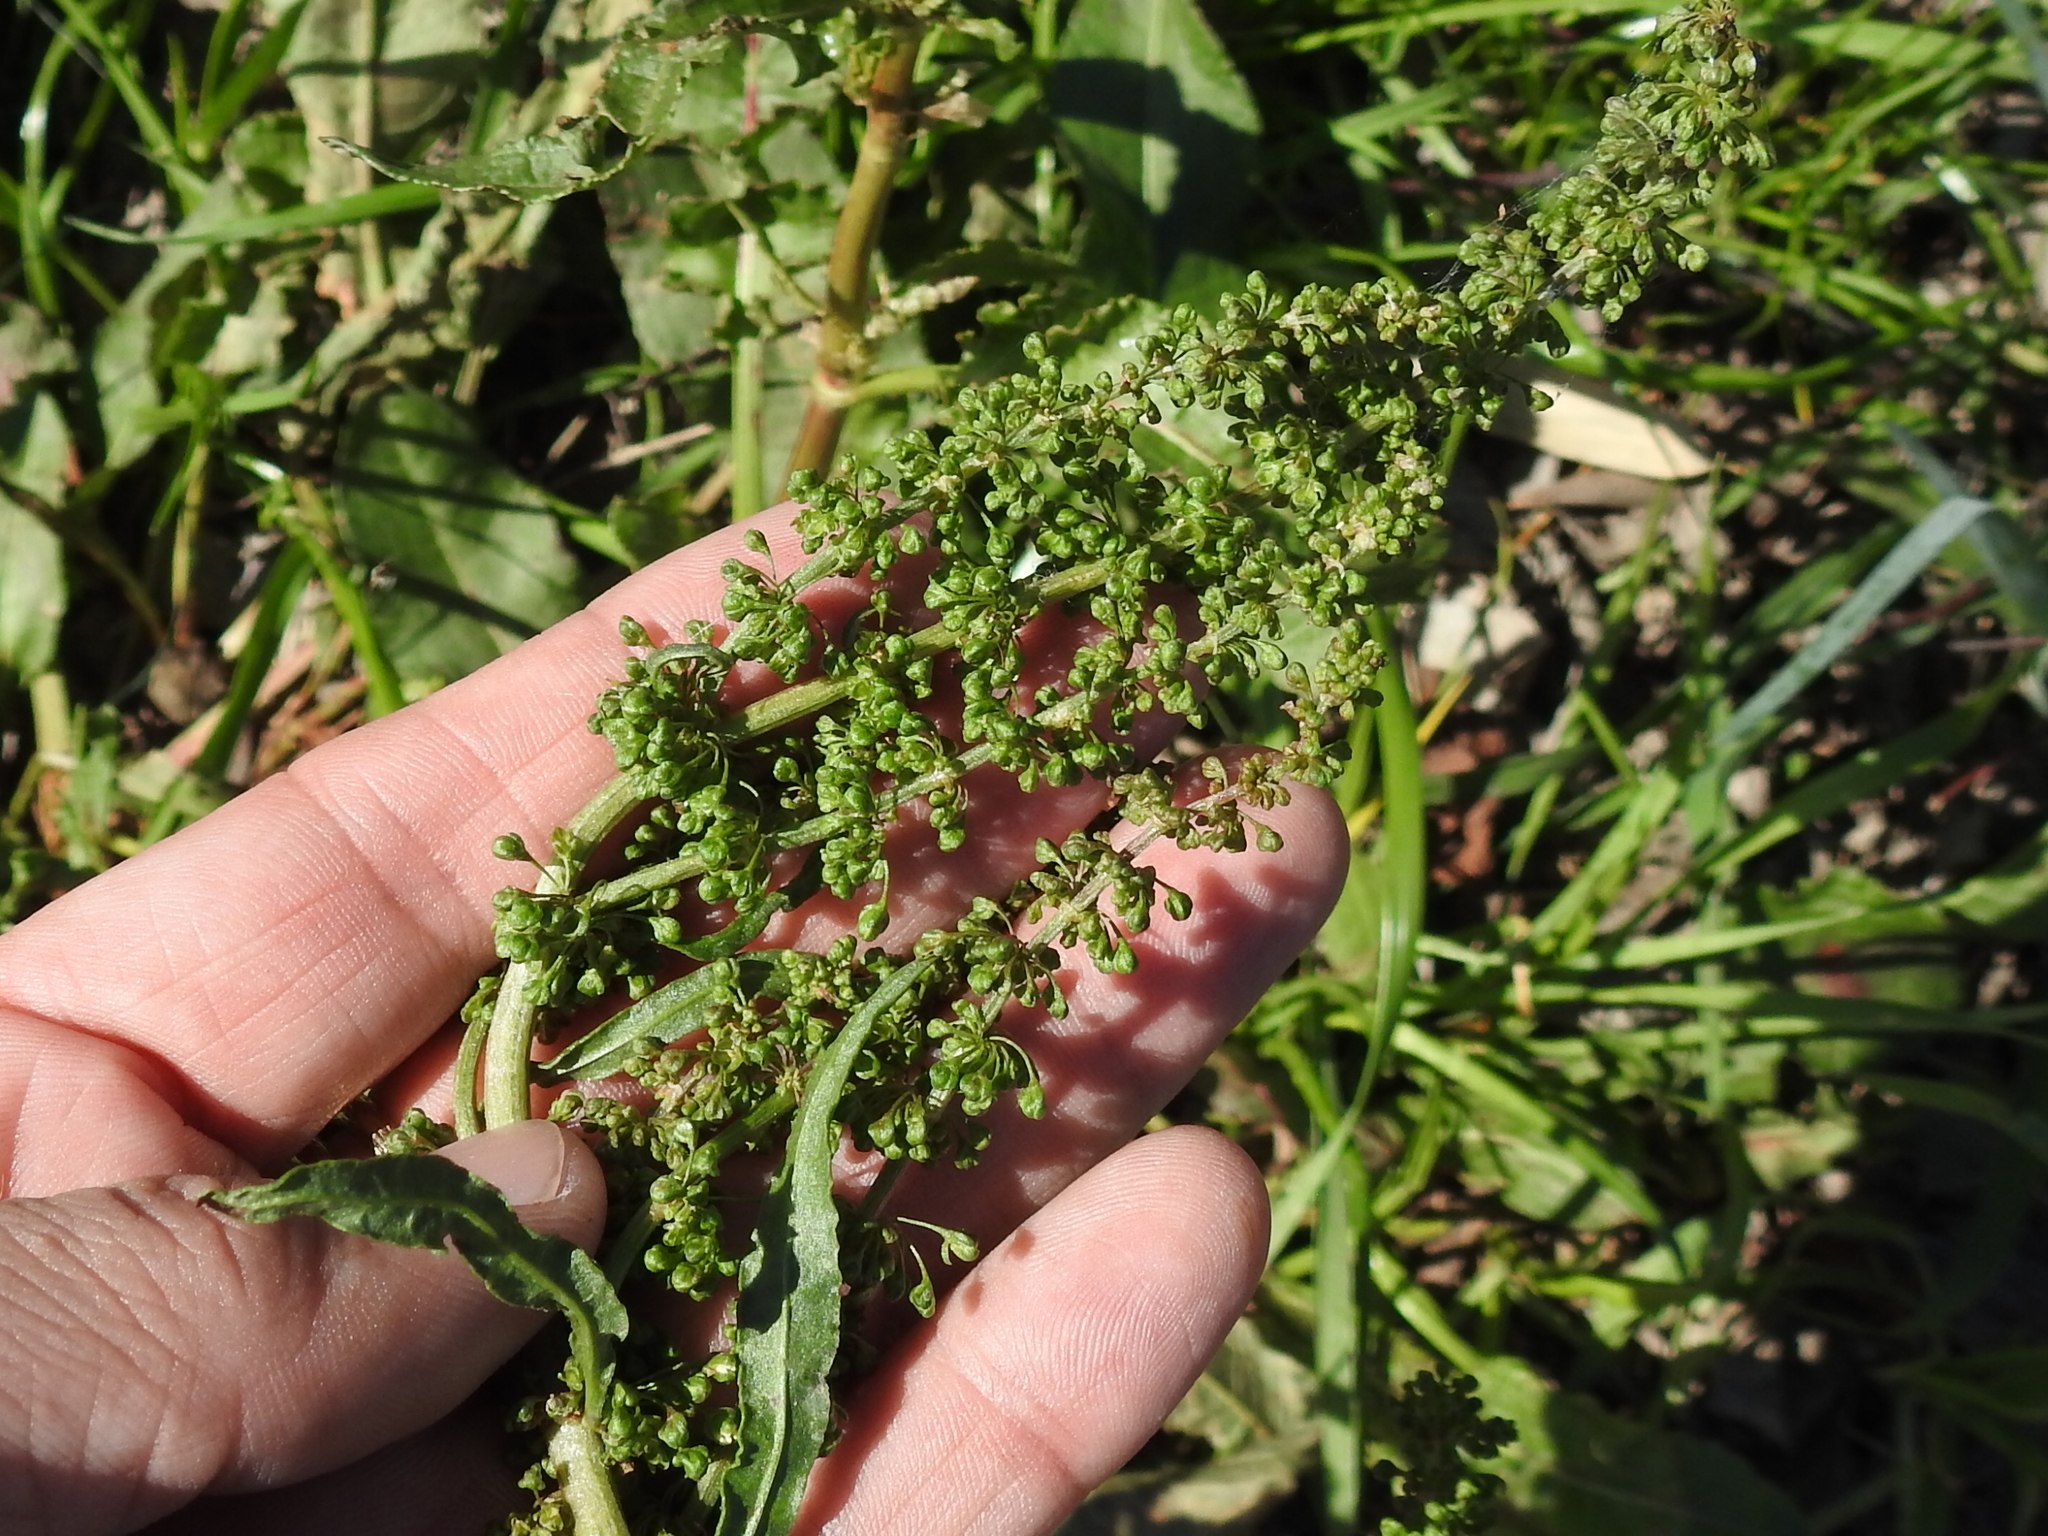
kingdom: Plantae
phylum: Tracheophyta
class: Magnoliopsida
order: Caryophyllales
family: Polygonaceae
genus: Rumex
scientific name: Rumex crispus
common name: Curled dock
